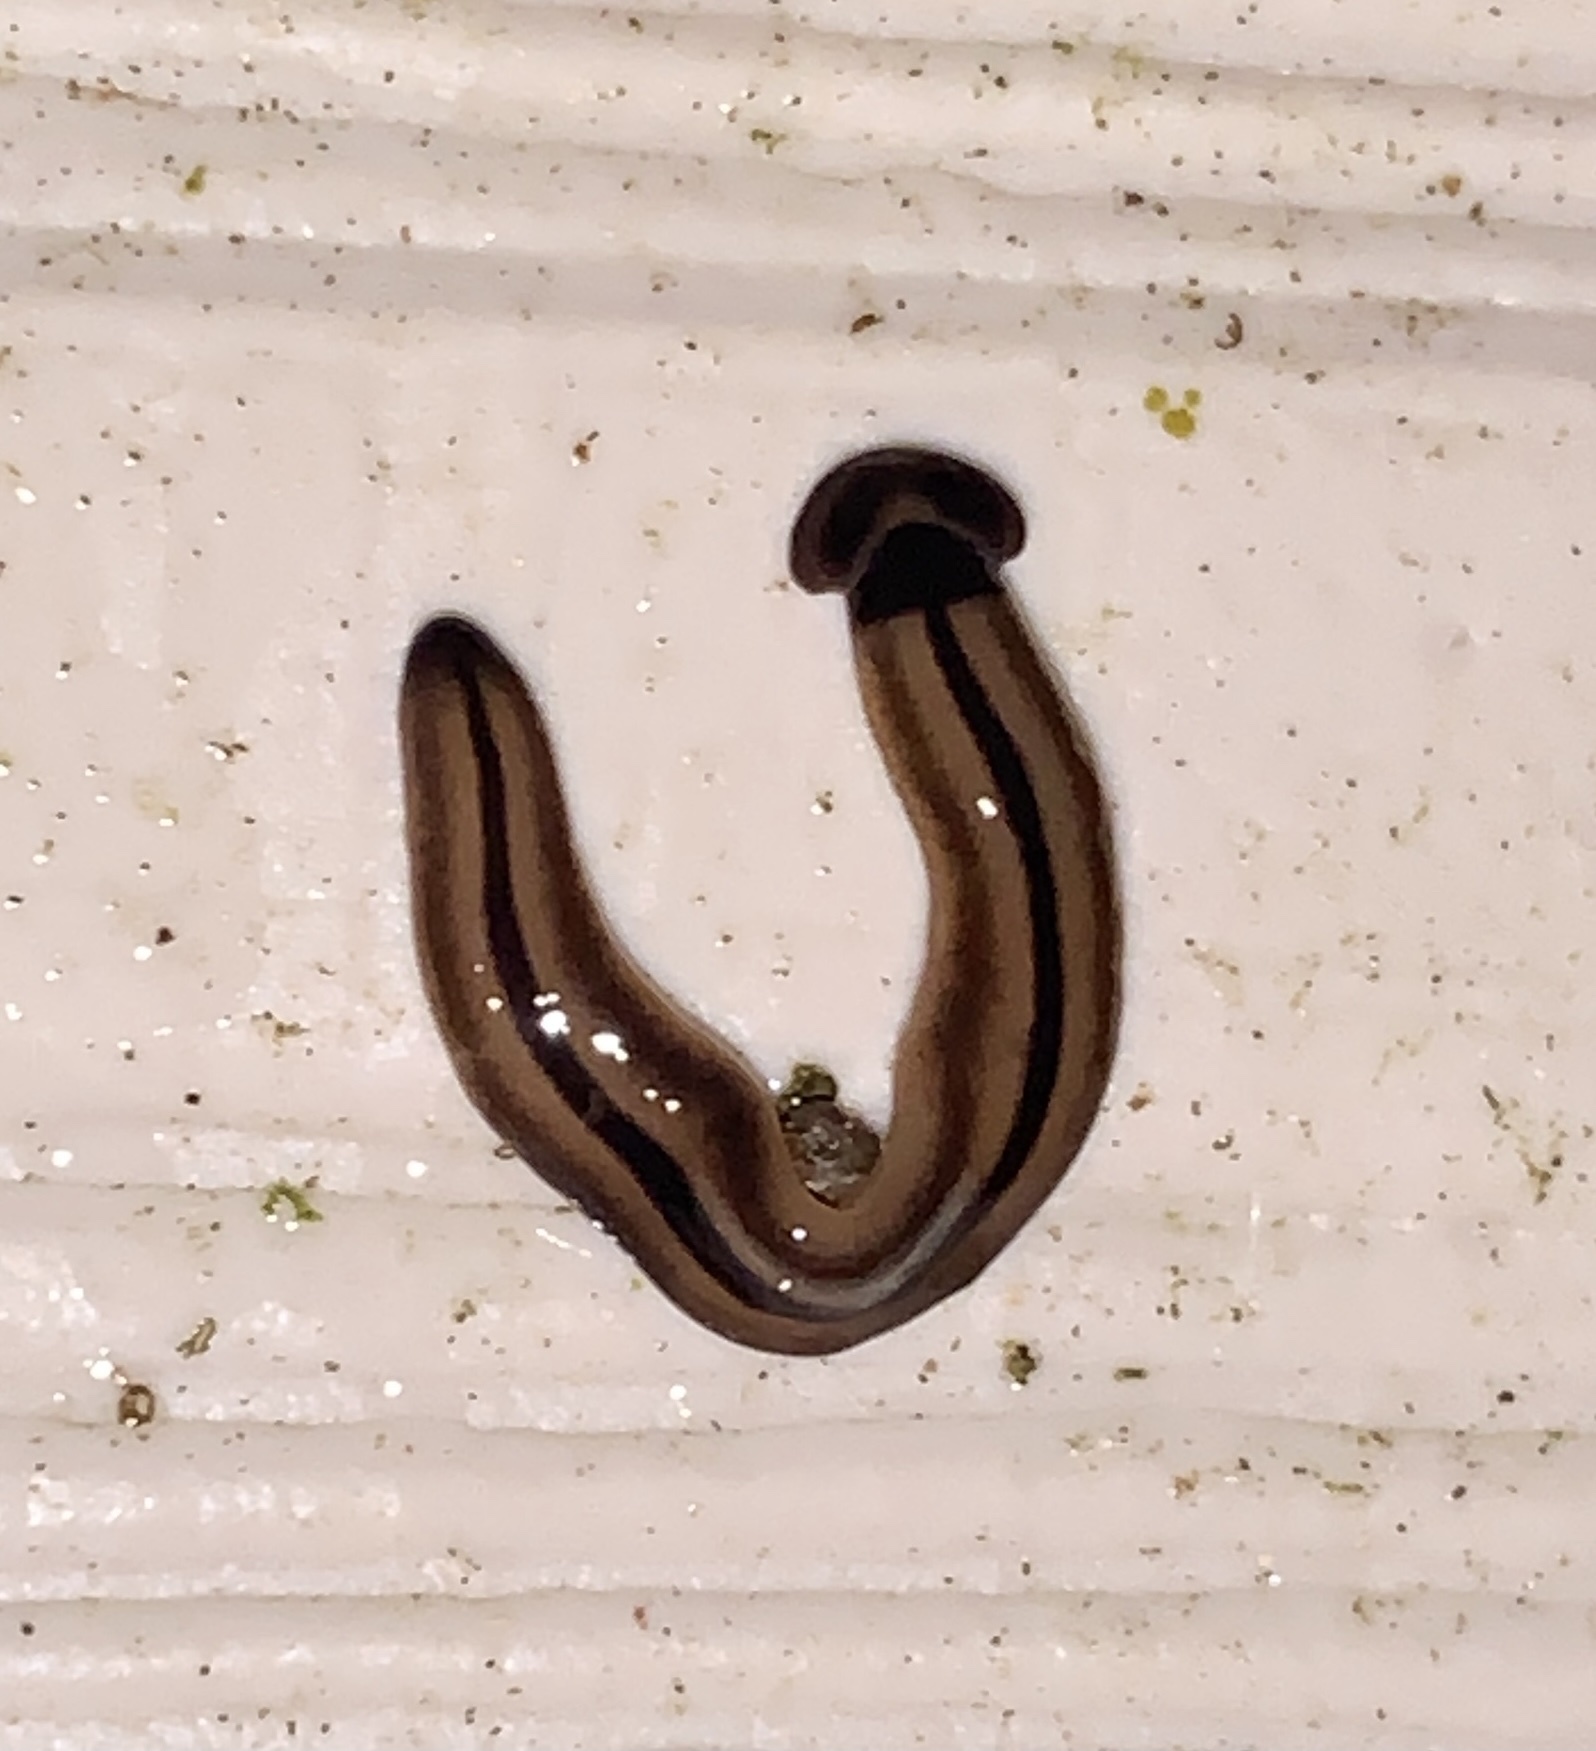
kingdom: Animalia
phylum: Platyhelminthes
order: Tricladida
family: Geoplanidae
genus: Bipalium
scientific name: Bipalium vagum
